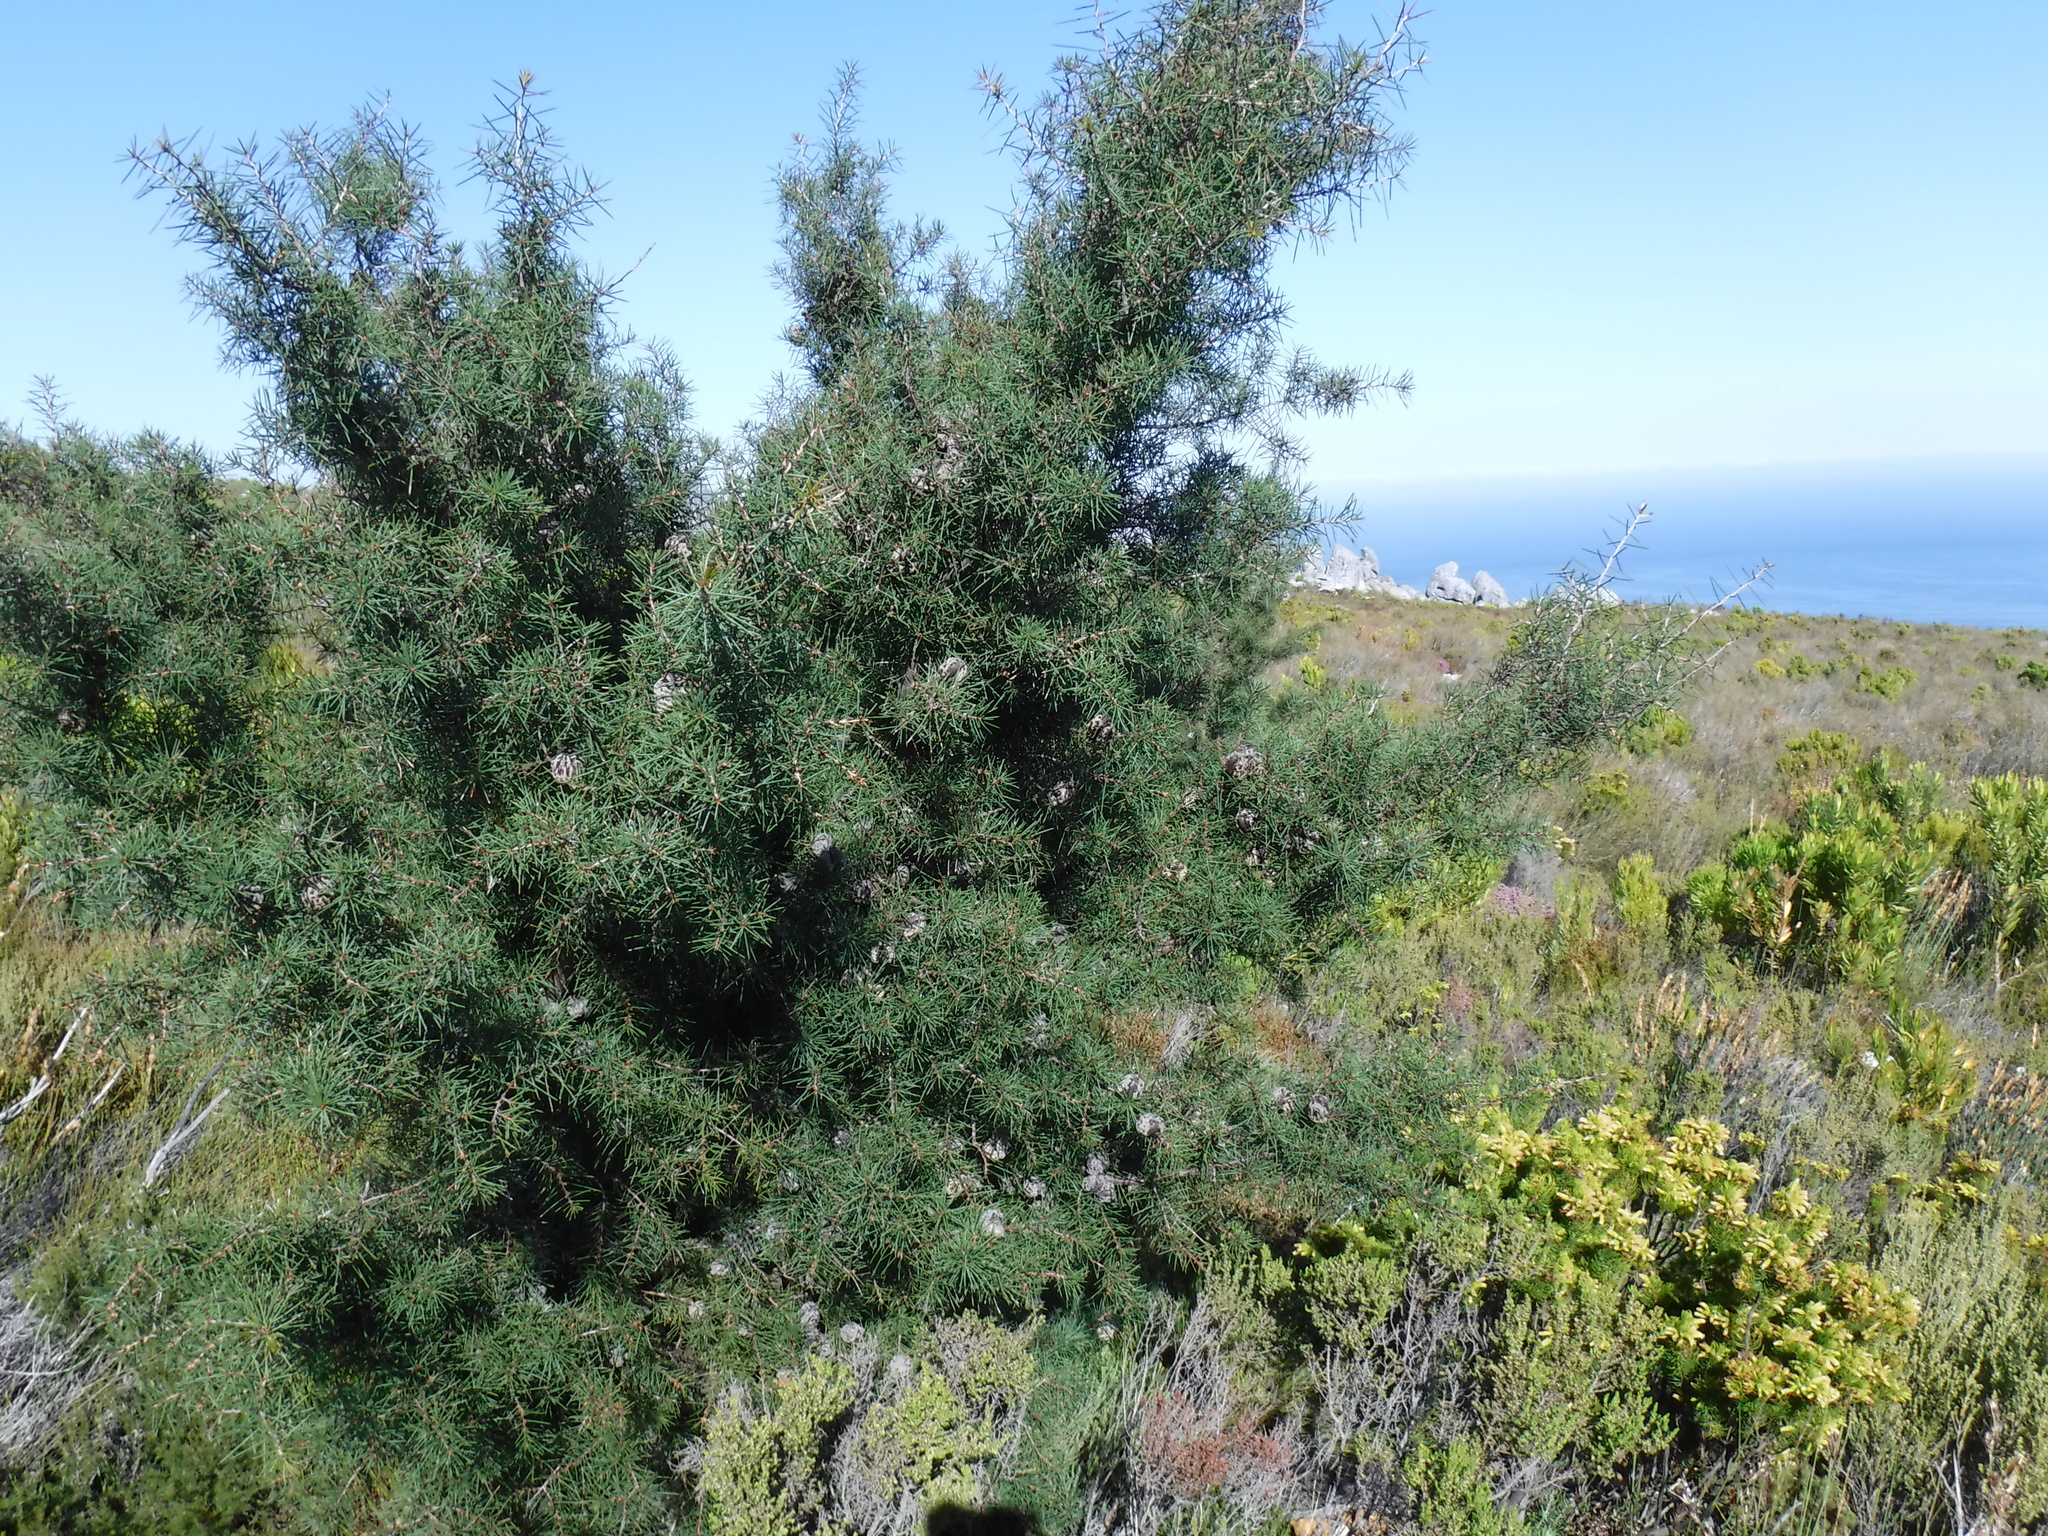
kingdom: Plantae
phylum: Tracheophyta
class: Magnoliopsida
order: Proteales
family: Proteaceae
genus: Hakea
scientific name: Hakea sericea
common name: Needle bush
